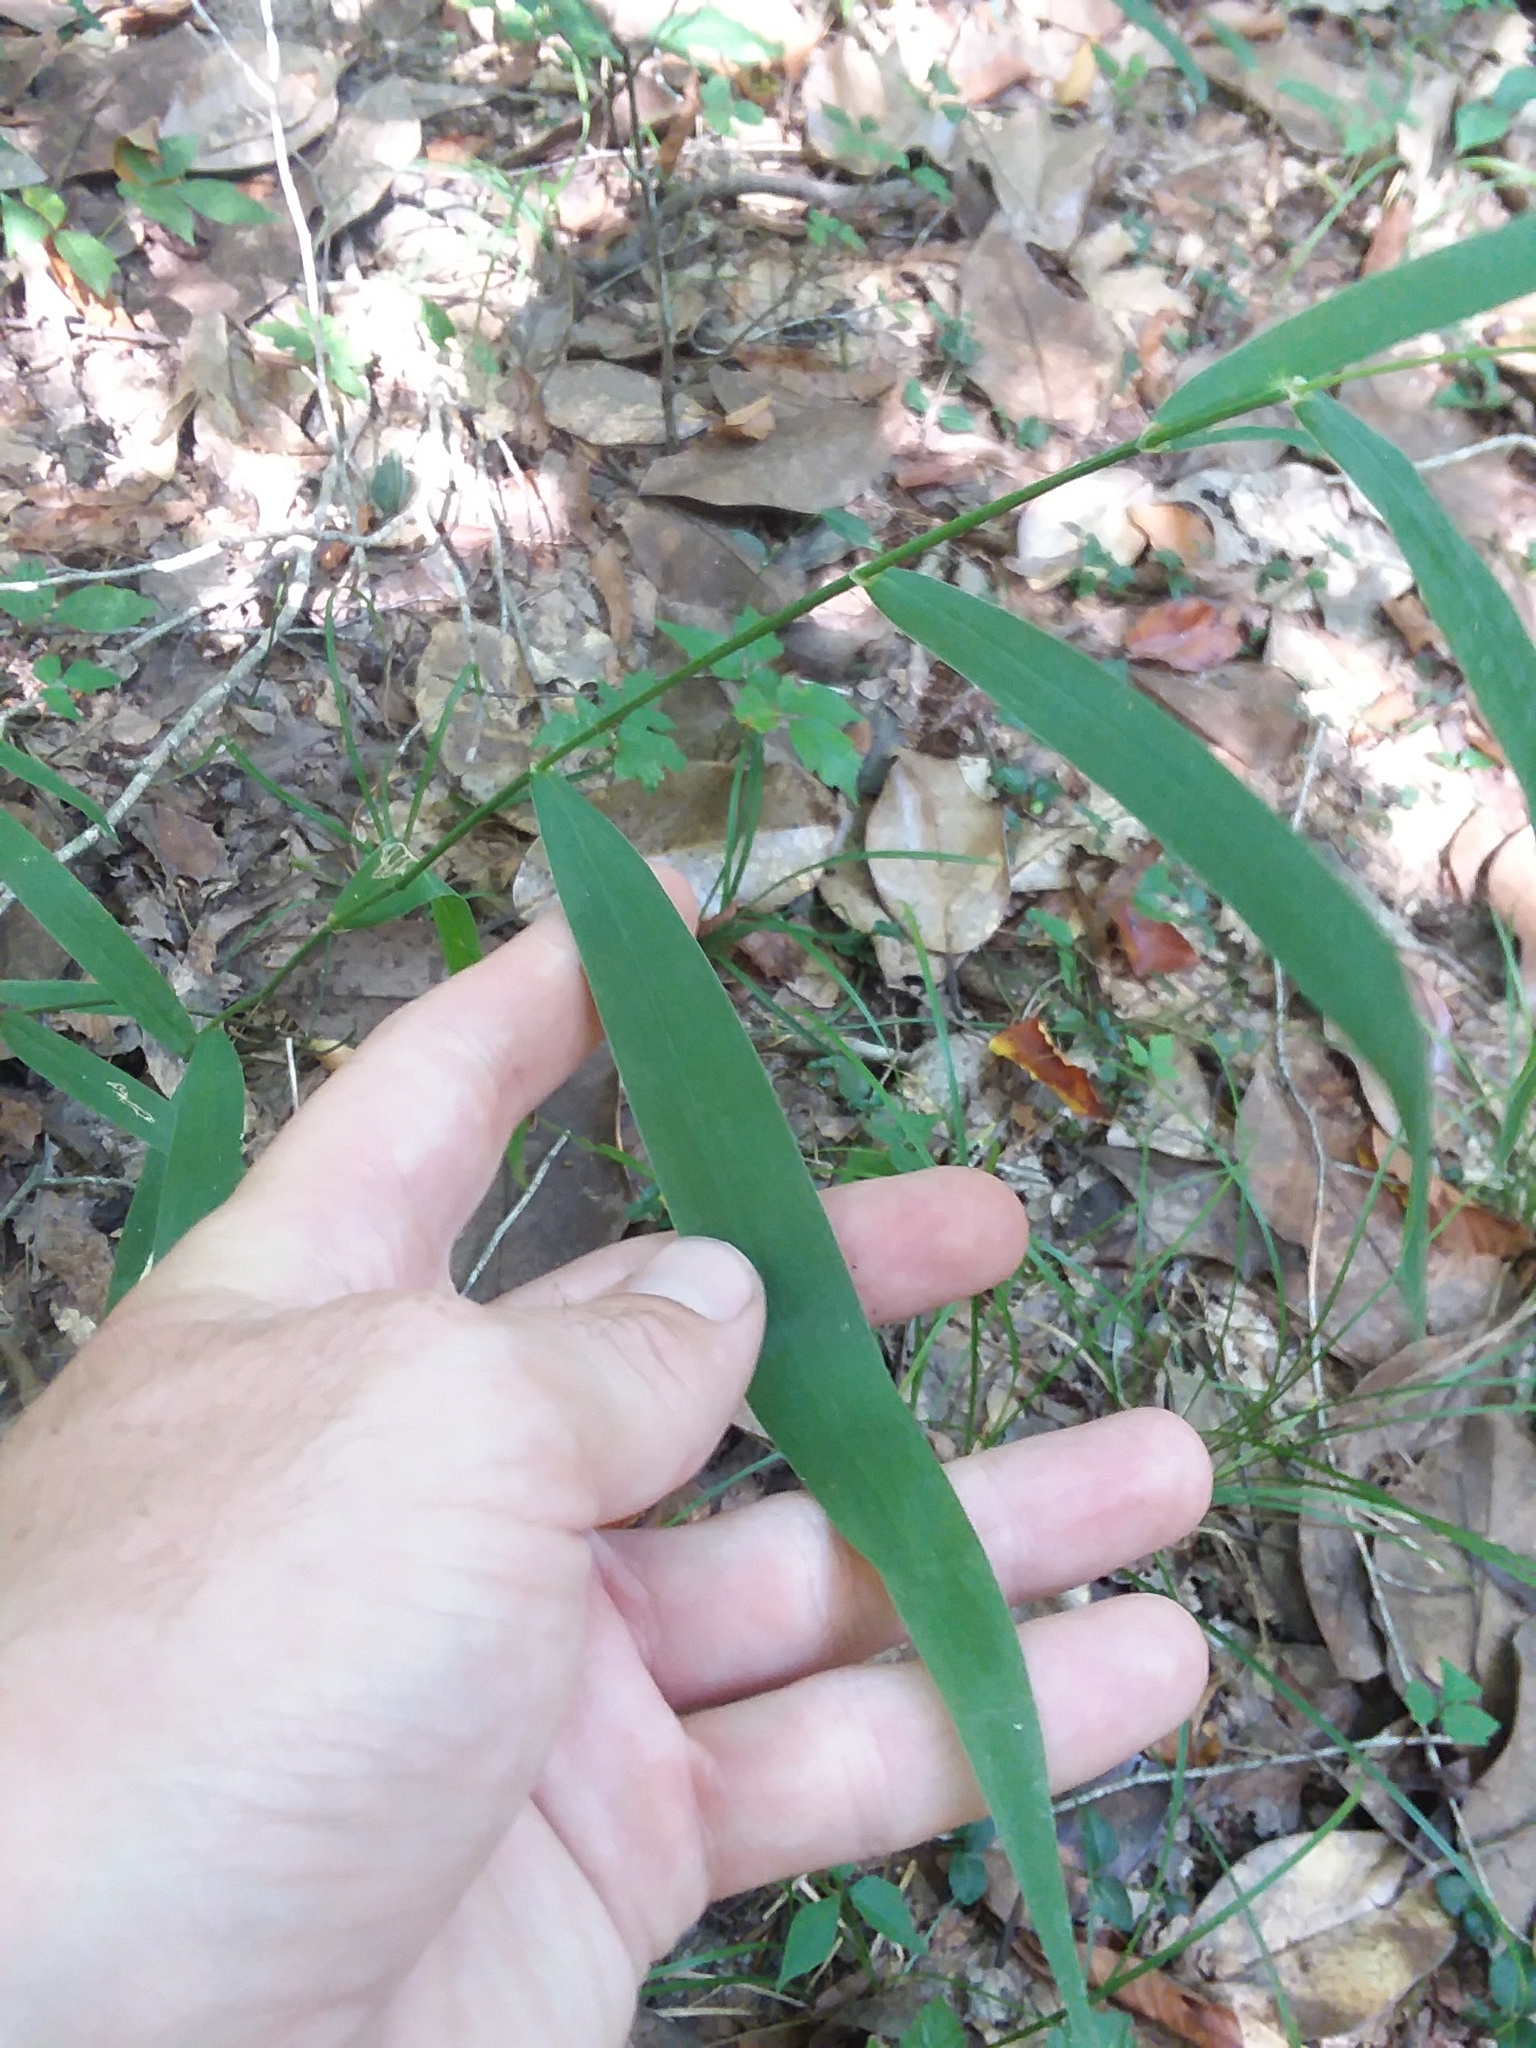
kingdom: Plantae
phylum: Tracheophyta
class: Liliopsida
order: Poales
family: Poaceae
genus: Chasmanthium
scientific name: Chasmanthium latifolium
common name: Broad-leaved chasmanthium
